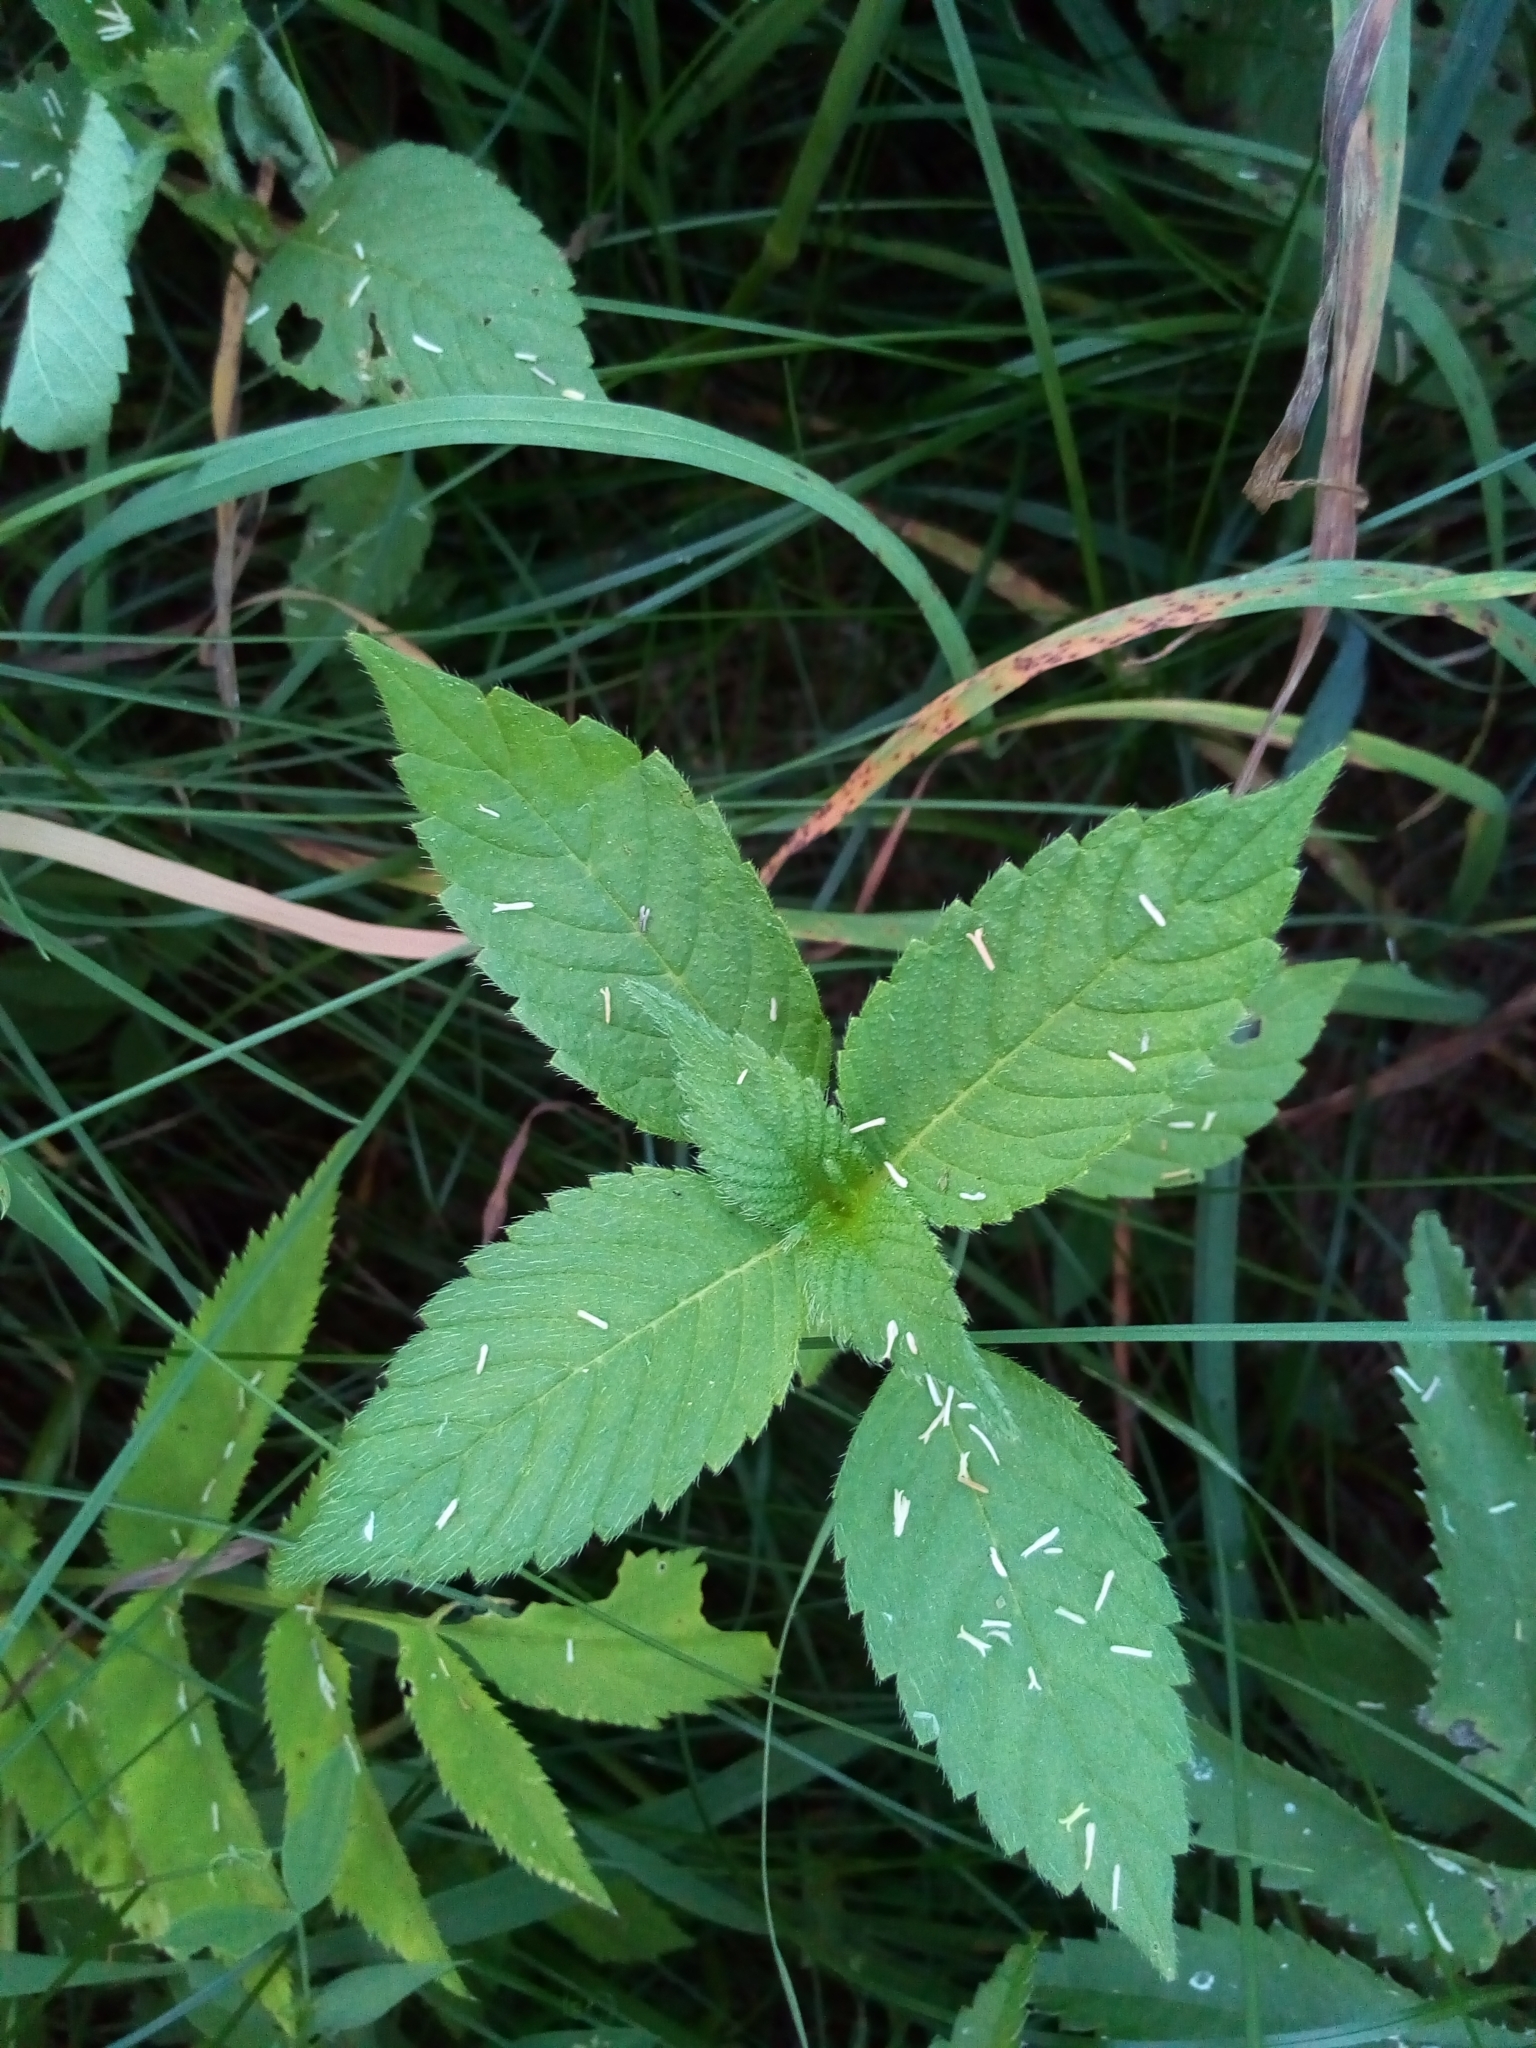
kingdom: Plantae
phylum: Tracheophyta
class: Magnoliopsida
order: Lamiales
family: Lamiaceae
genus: Galeopsis
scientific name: Galeopsis
